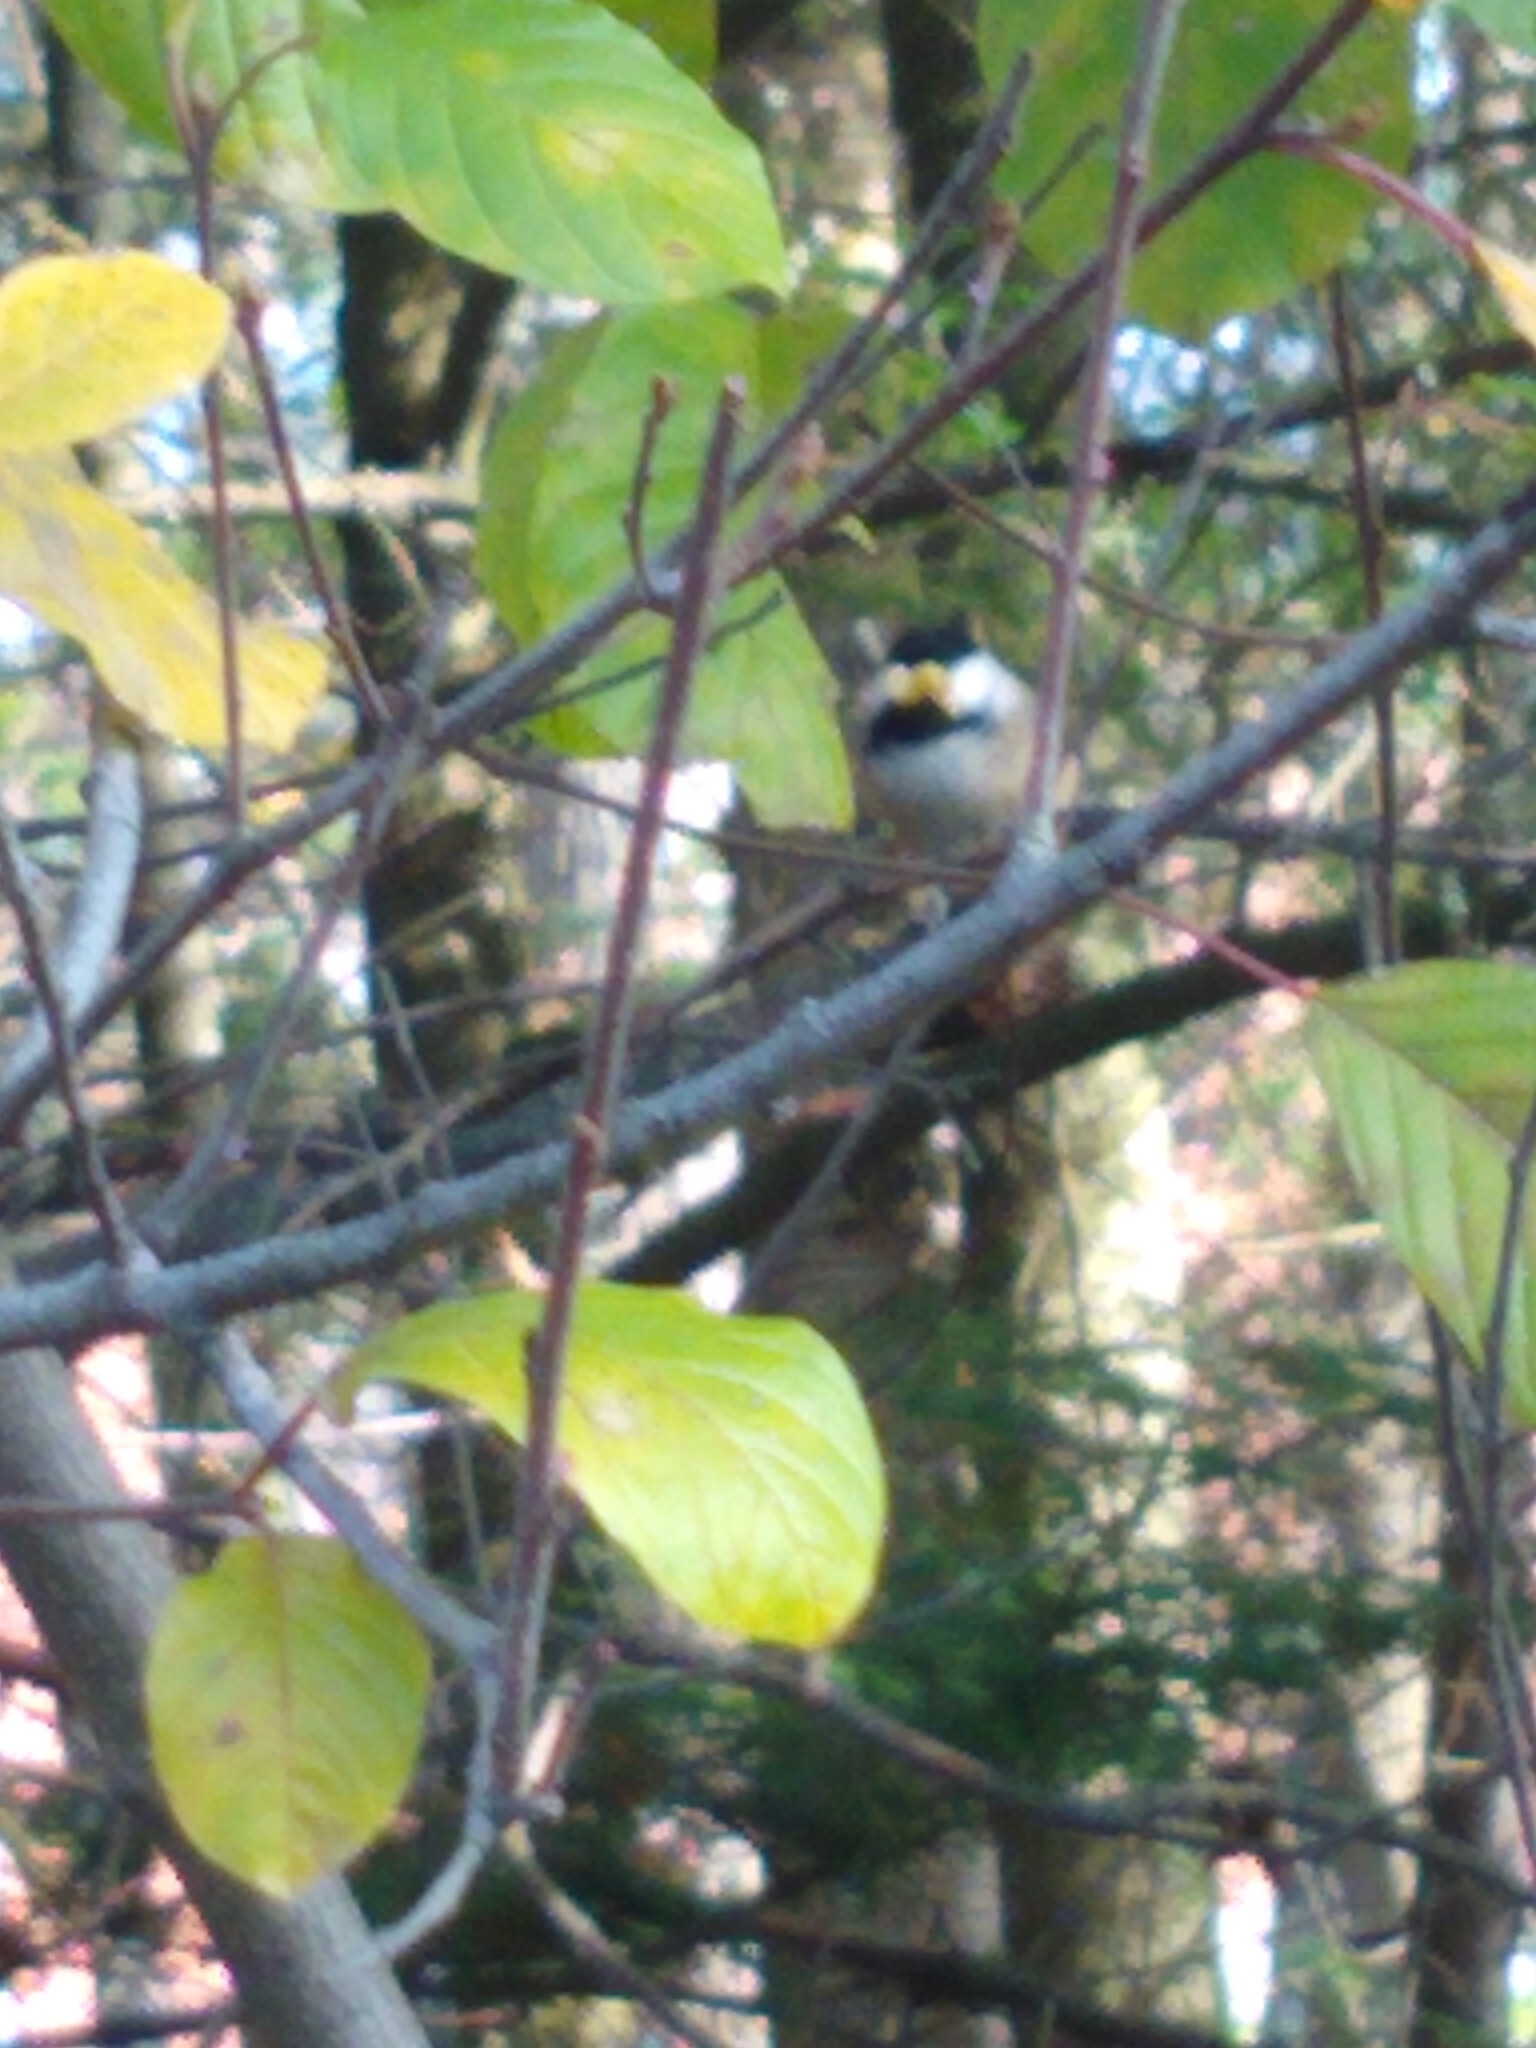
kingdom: Animalia
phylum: Chordata
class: Aves
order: Passeriformes
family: Paridae
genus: Poecile
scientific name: Poecile atricapillus
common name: Black-capped chickadee
